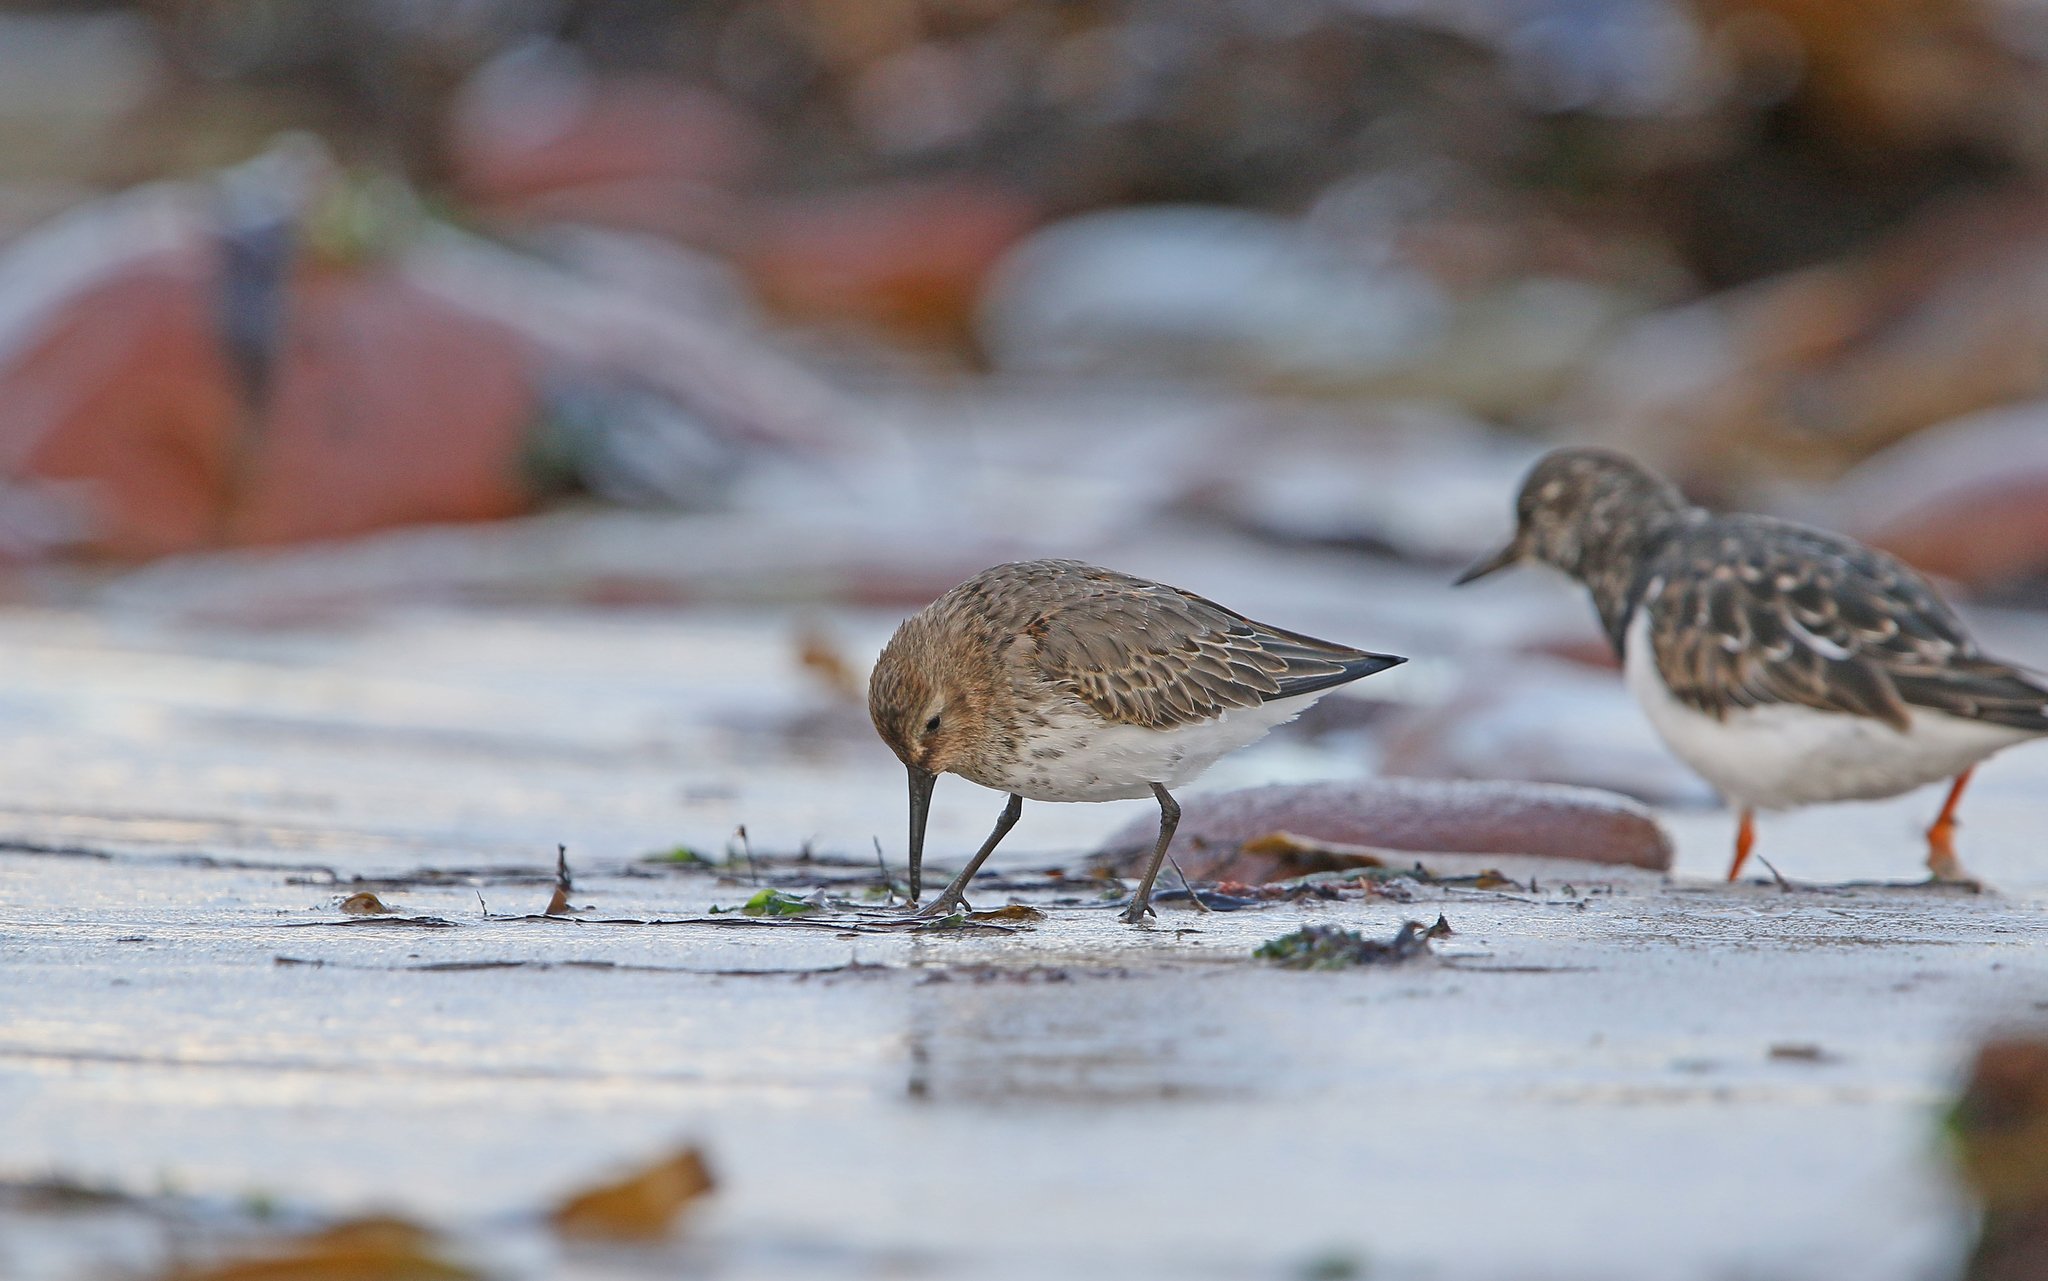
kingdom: Animalia
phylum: Chordata
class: Aves
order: Charadriiformes
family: Scolopacidae
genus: Calidris
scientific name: Calidris alpina
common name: Dunlin
